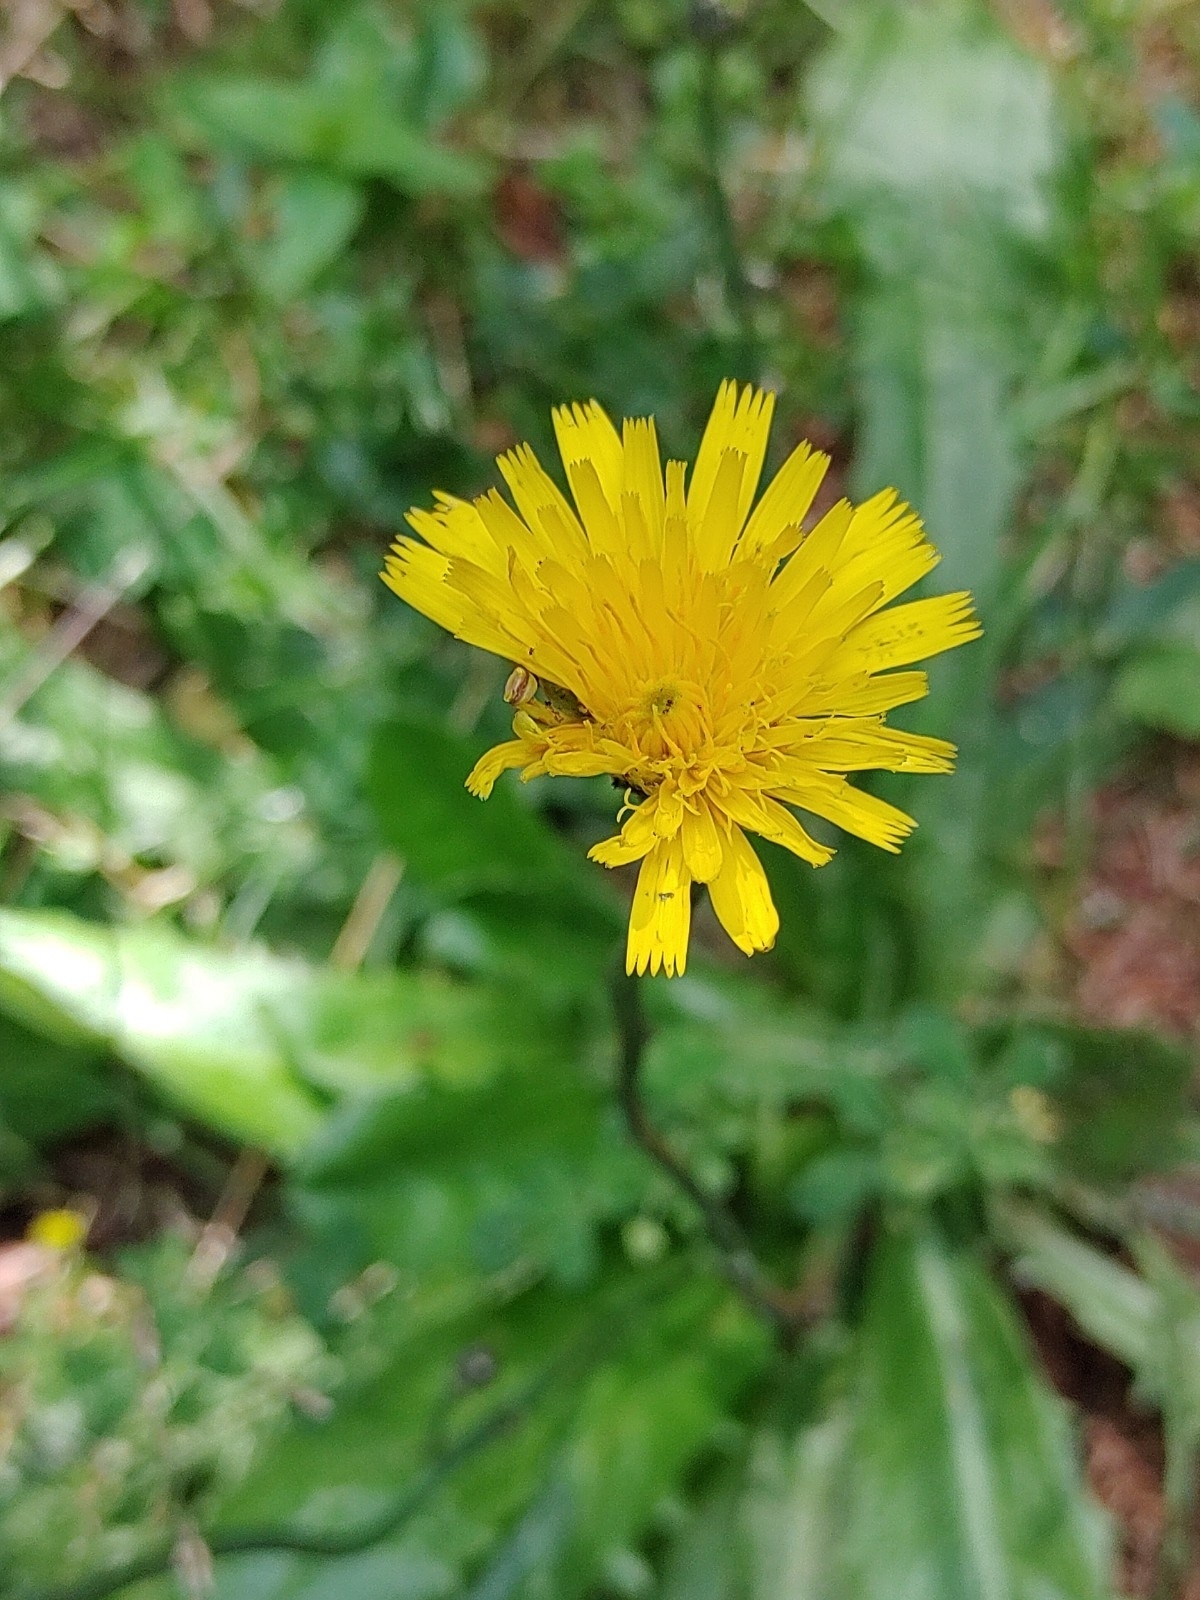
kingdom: Plantae
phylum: Tracheophyta
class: Magnoliopsida
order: Asterales
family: Asteraceae
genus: Hypochaeris
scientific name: Hypochaeris radicata
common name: Flatweed
